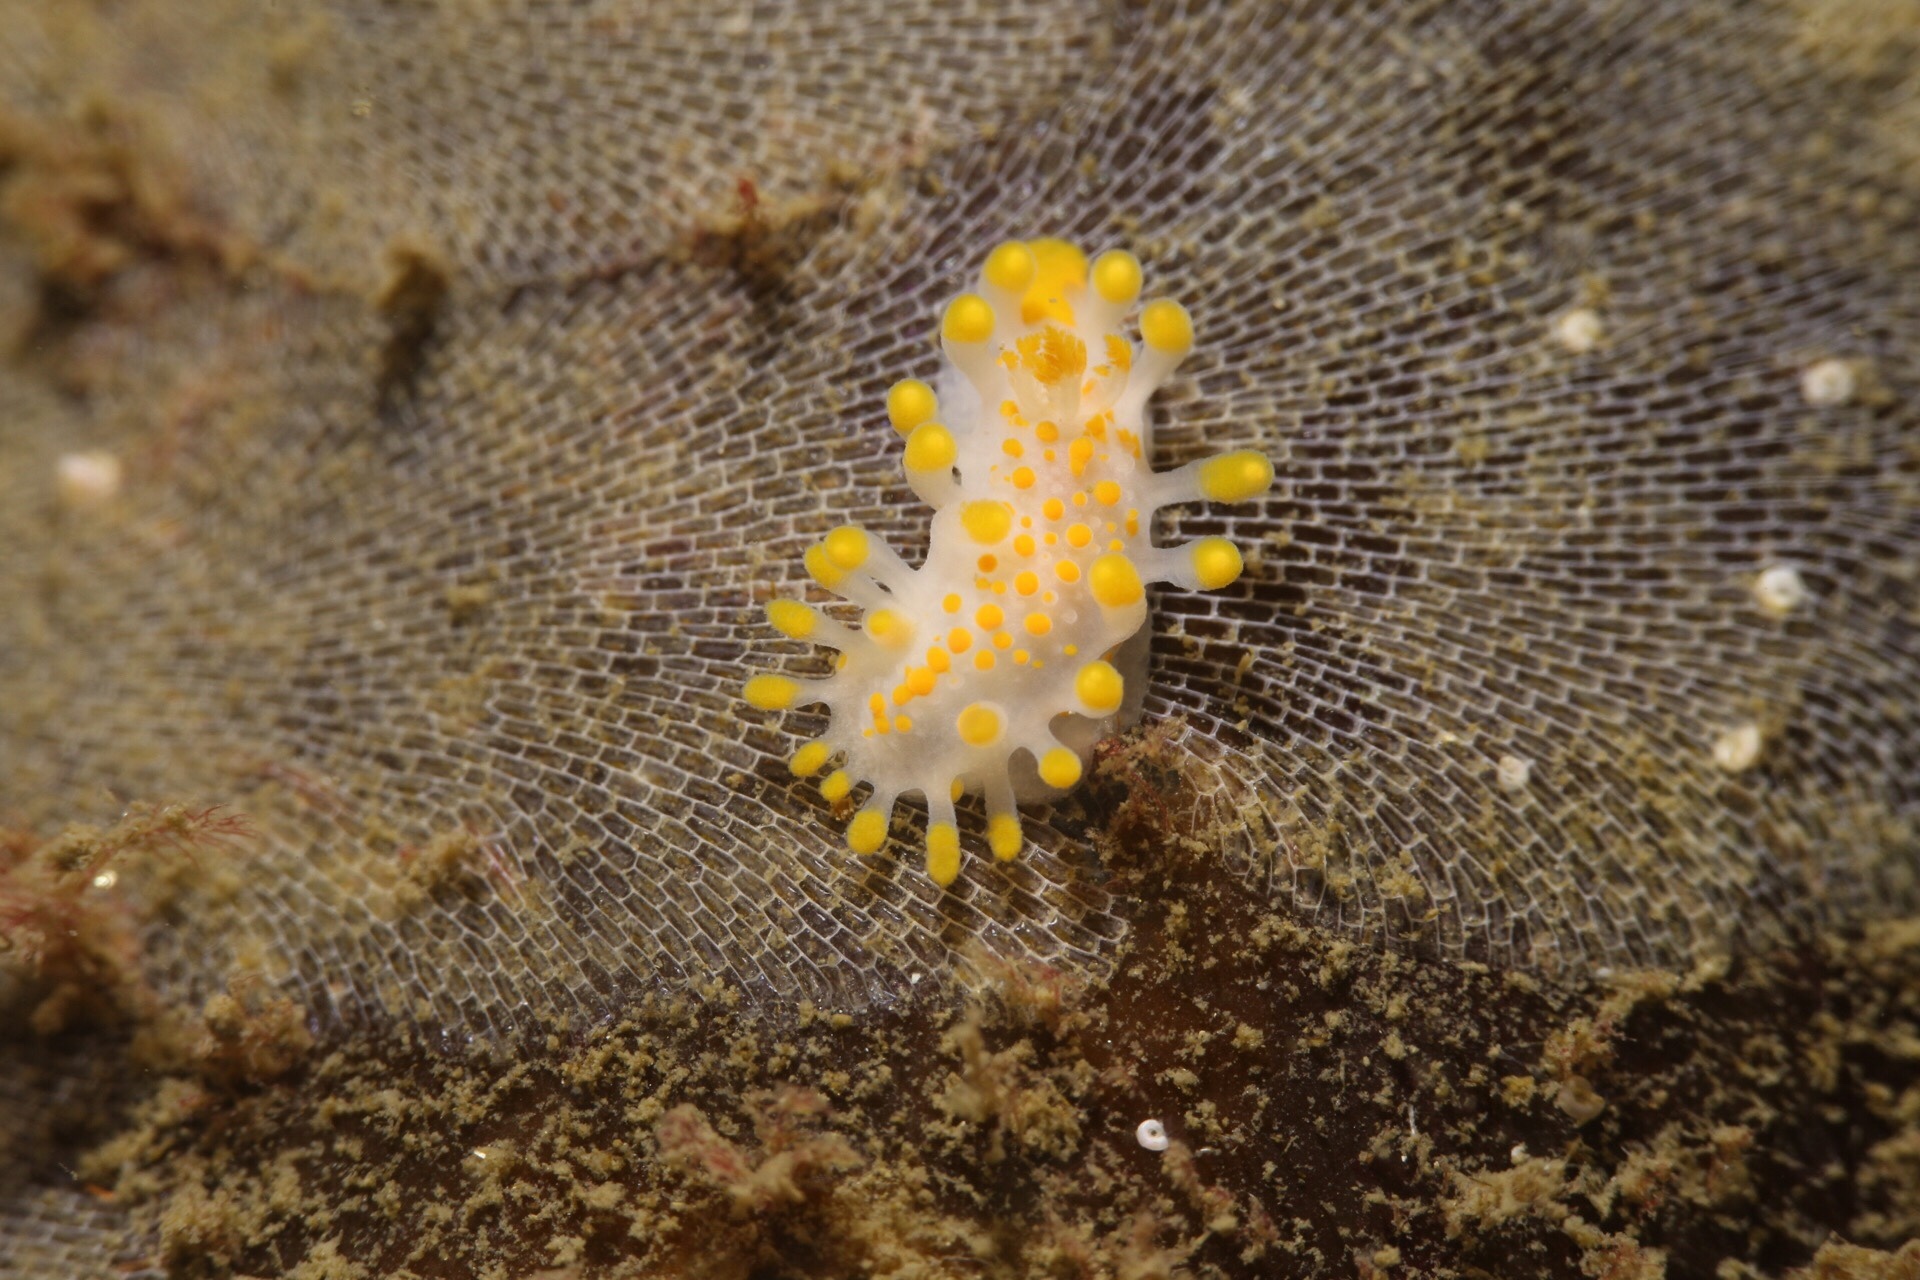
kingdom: Animalia
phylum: Mollusca
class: Gastropoda
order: Nudibranchia
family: Polyceridae
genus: Limacia
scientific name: Limacia clavigera
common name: Orange-clubbed sea slug
